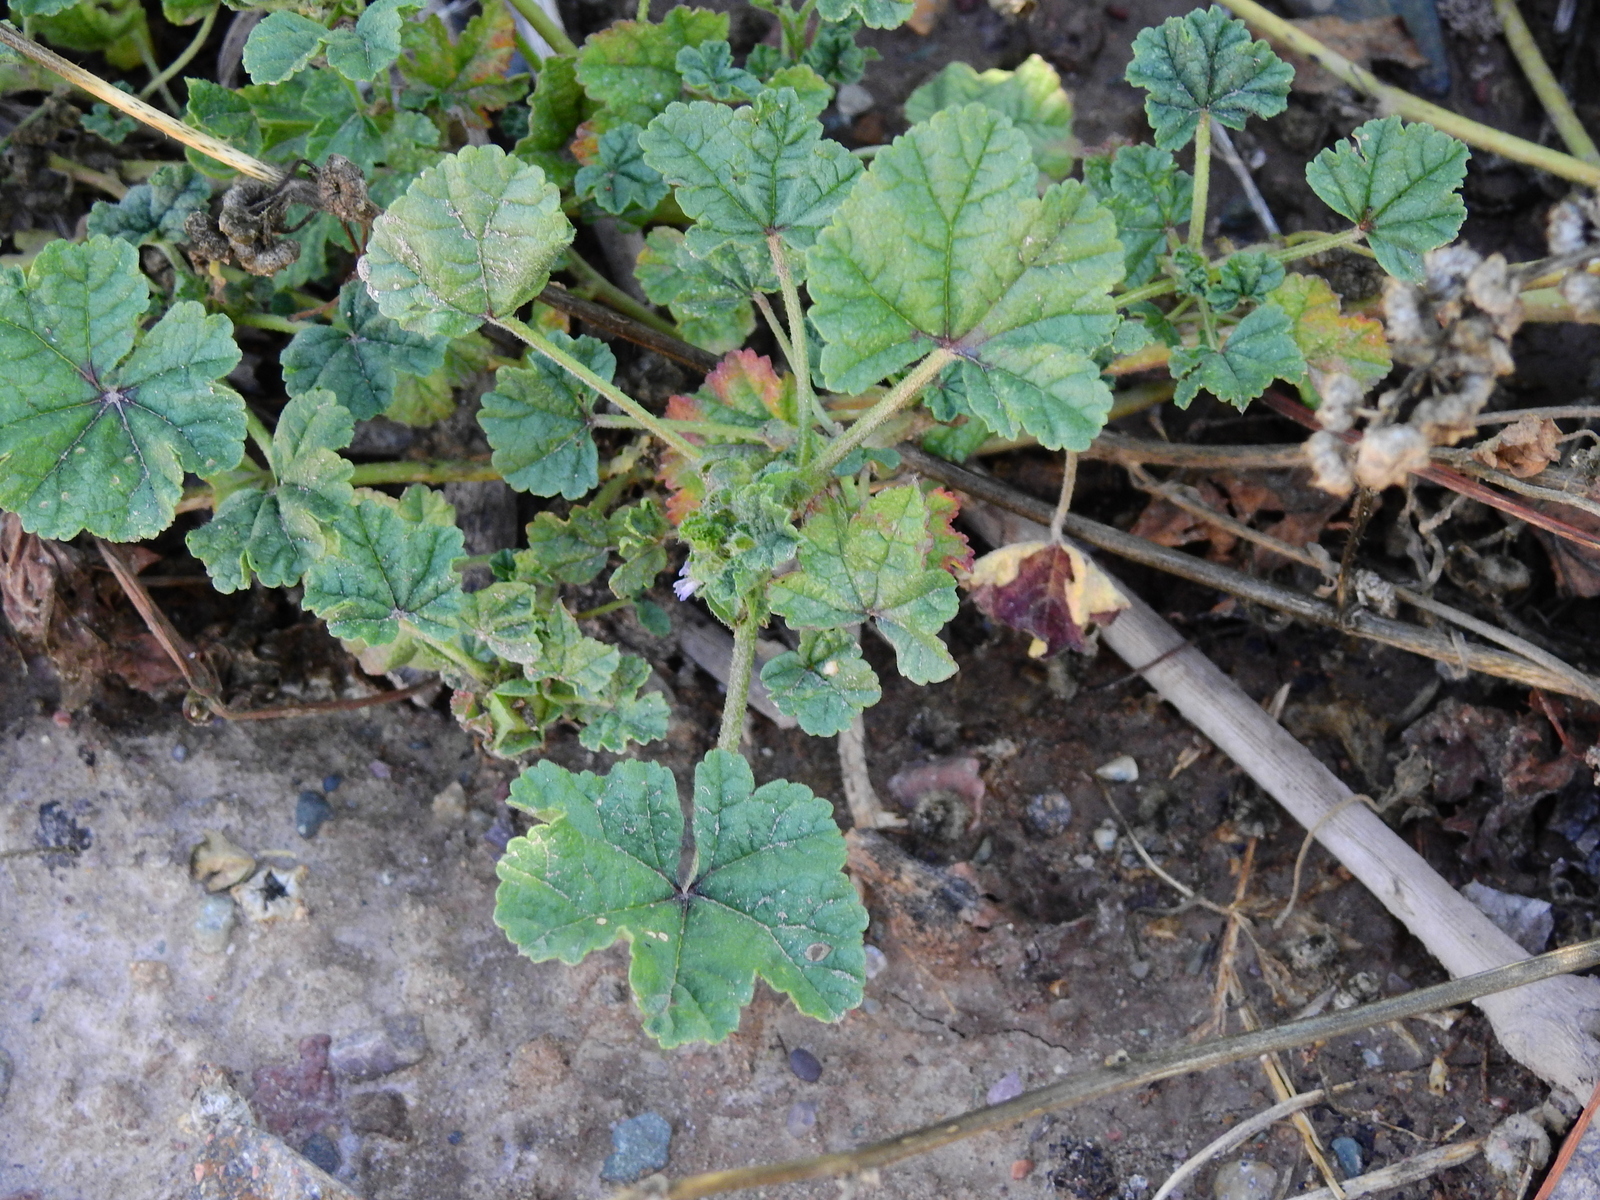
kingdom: Plantae
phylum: Tracheophyta
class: Magnoliopsida
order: Malvales
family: Malvaceae
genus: Malva
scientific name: Malva parviflora
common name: Least mallow
